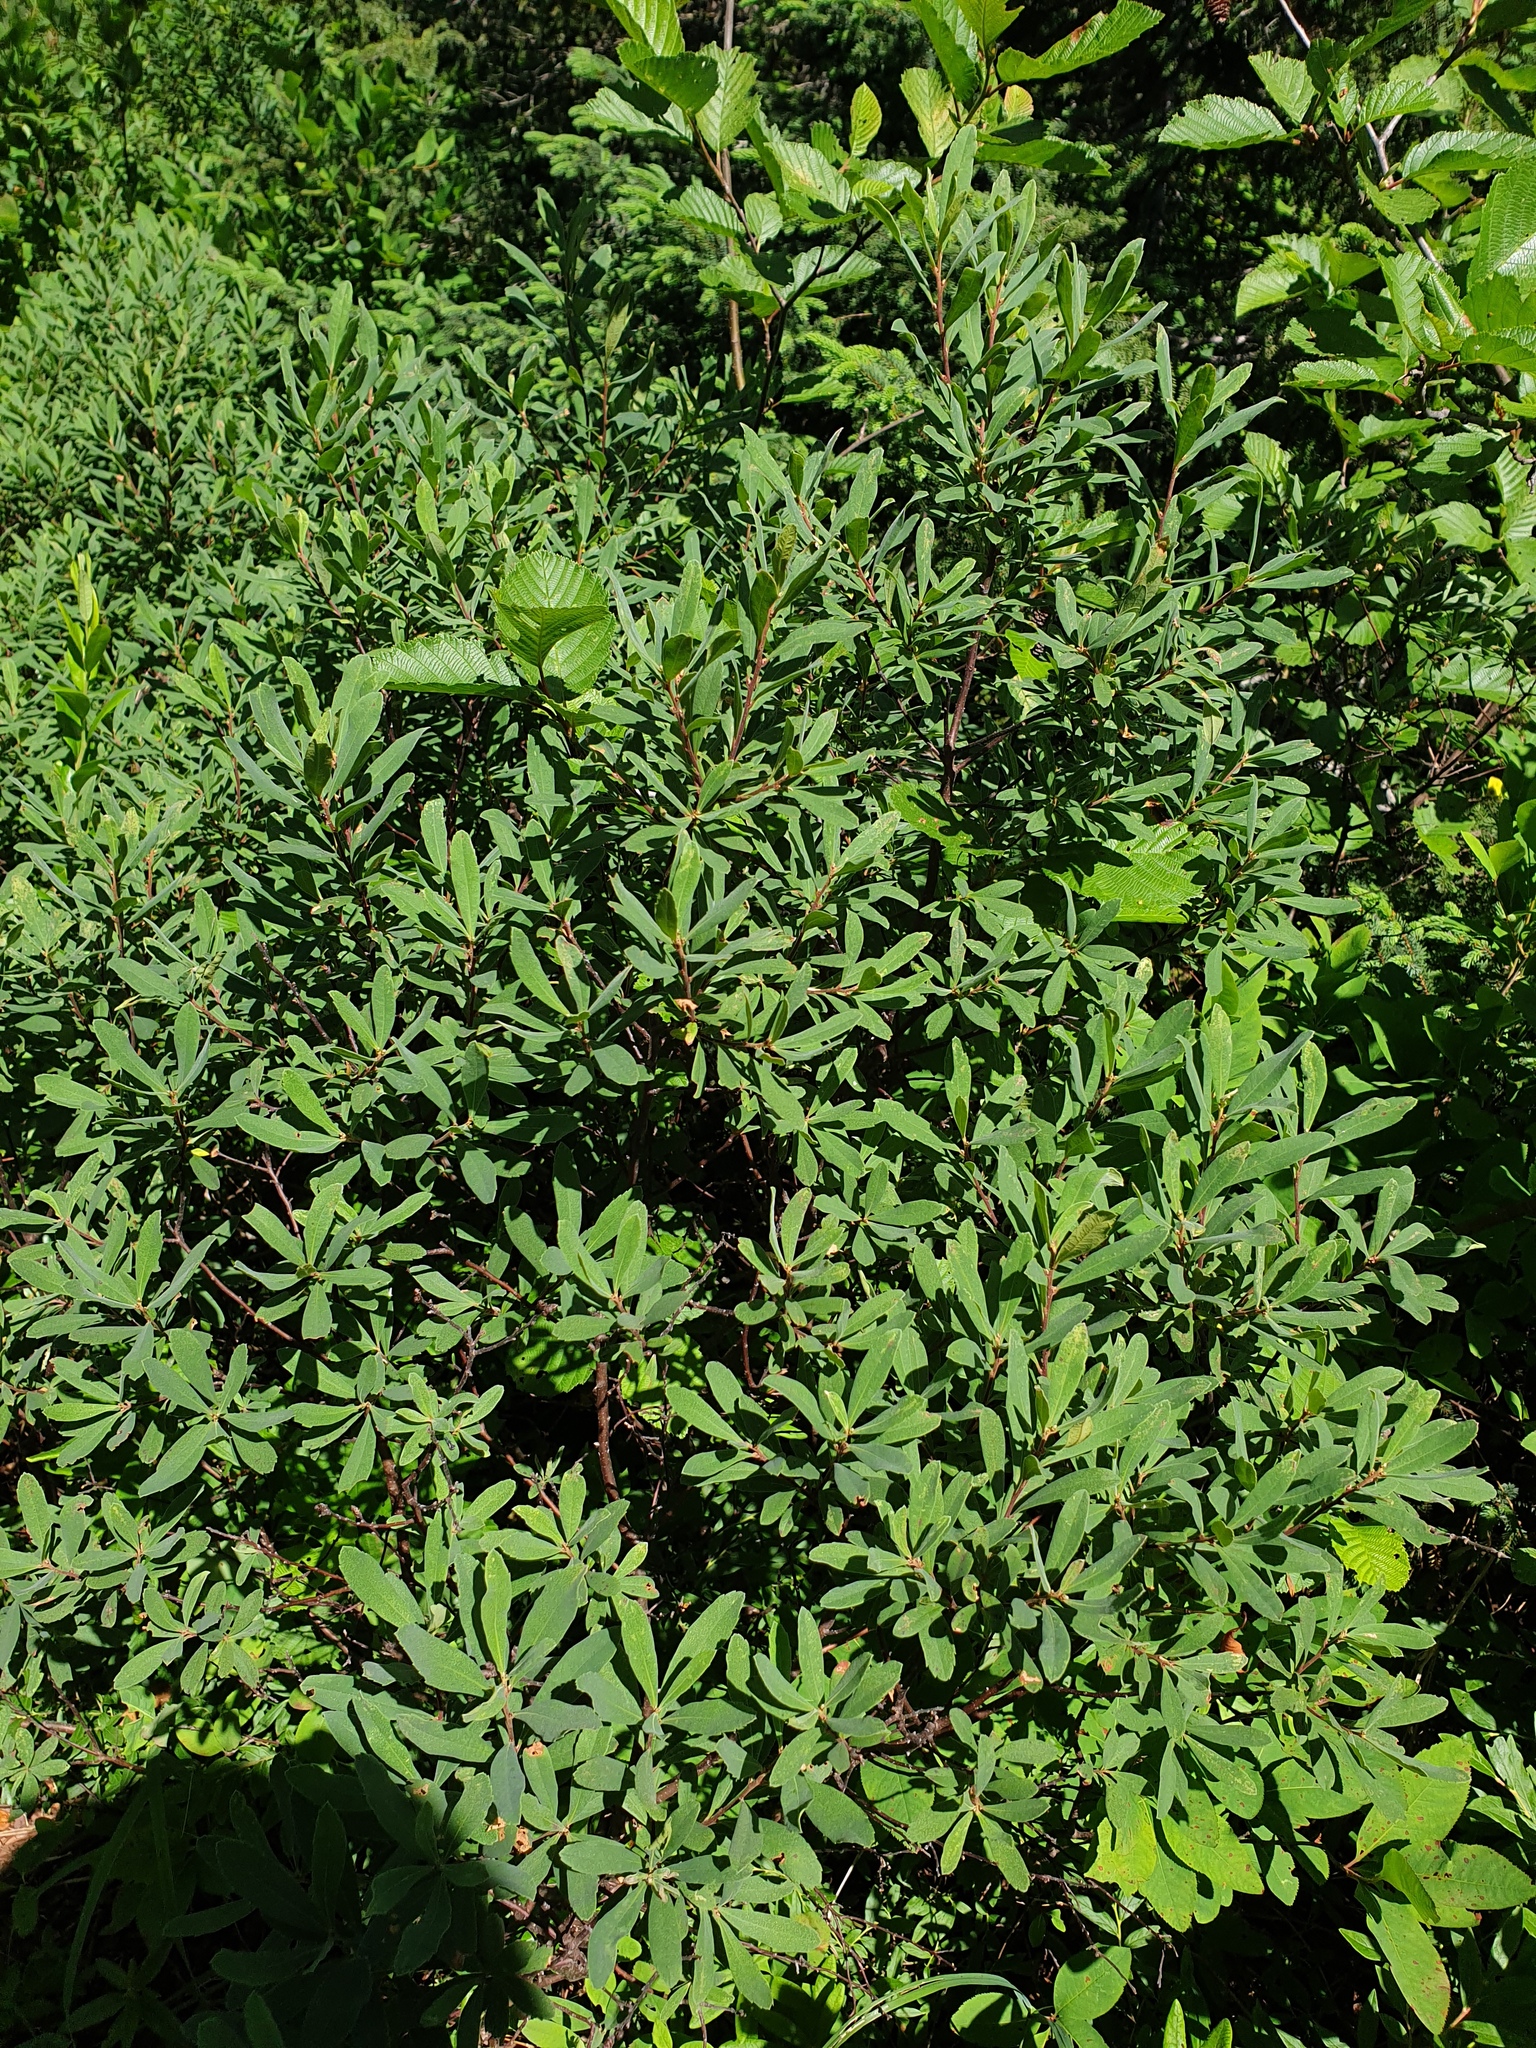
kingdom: Plantae
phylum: Tracheophyta
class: Magnoliopsida
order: Fagales
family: Myricaceae
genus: Myrica
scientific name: Myrica gale
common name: Sweet gale
